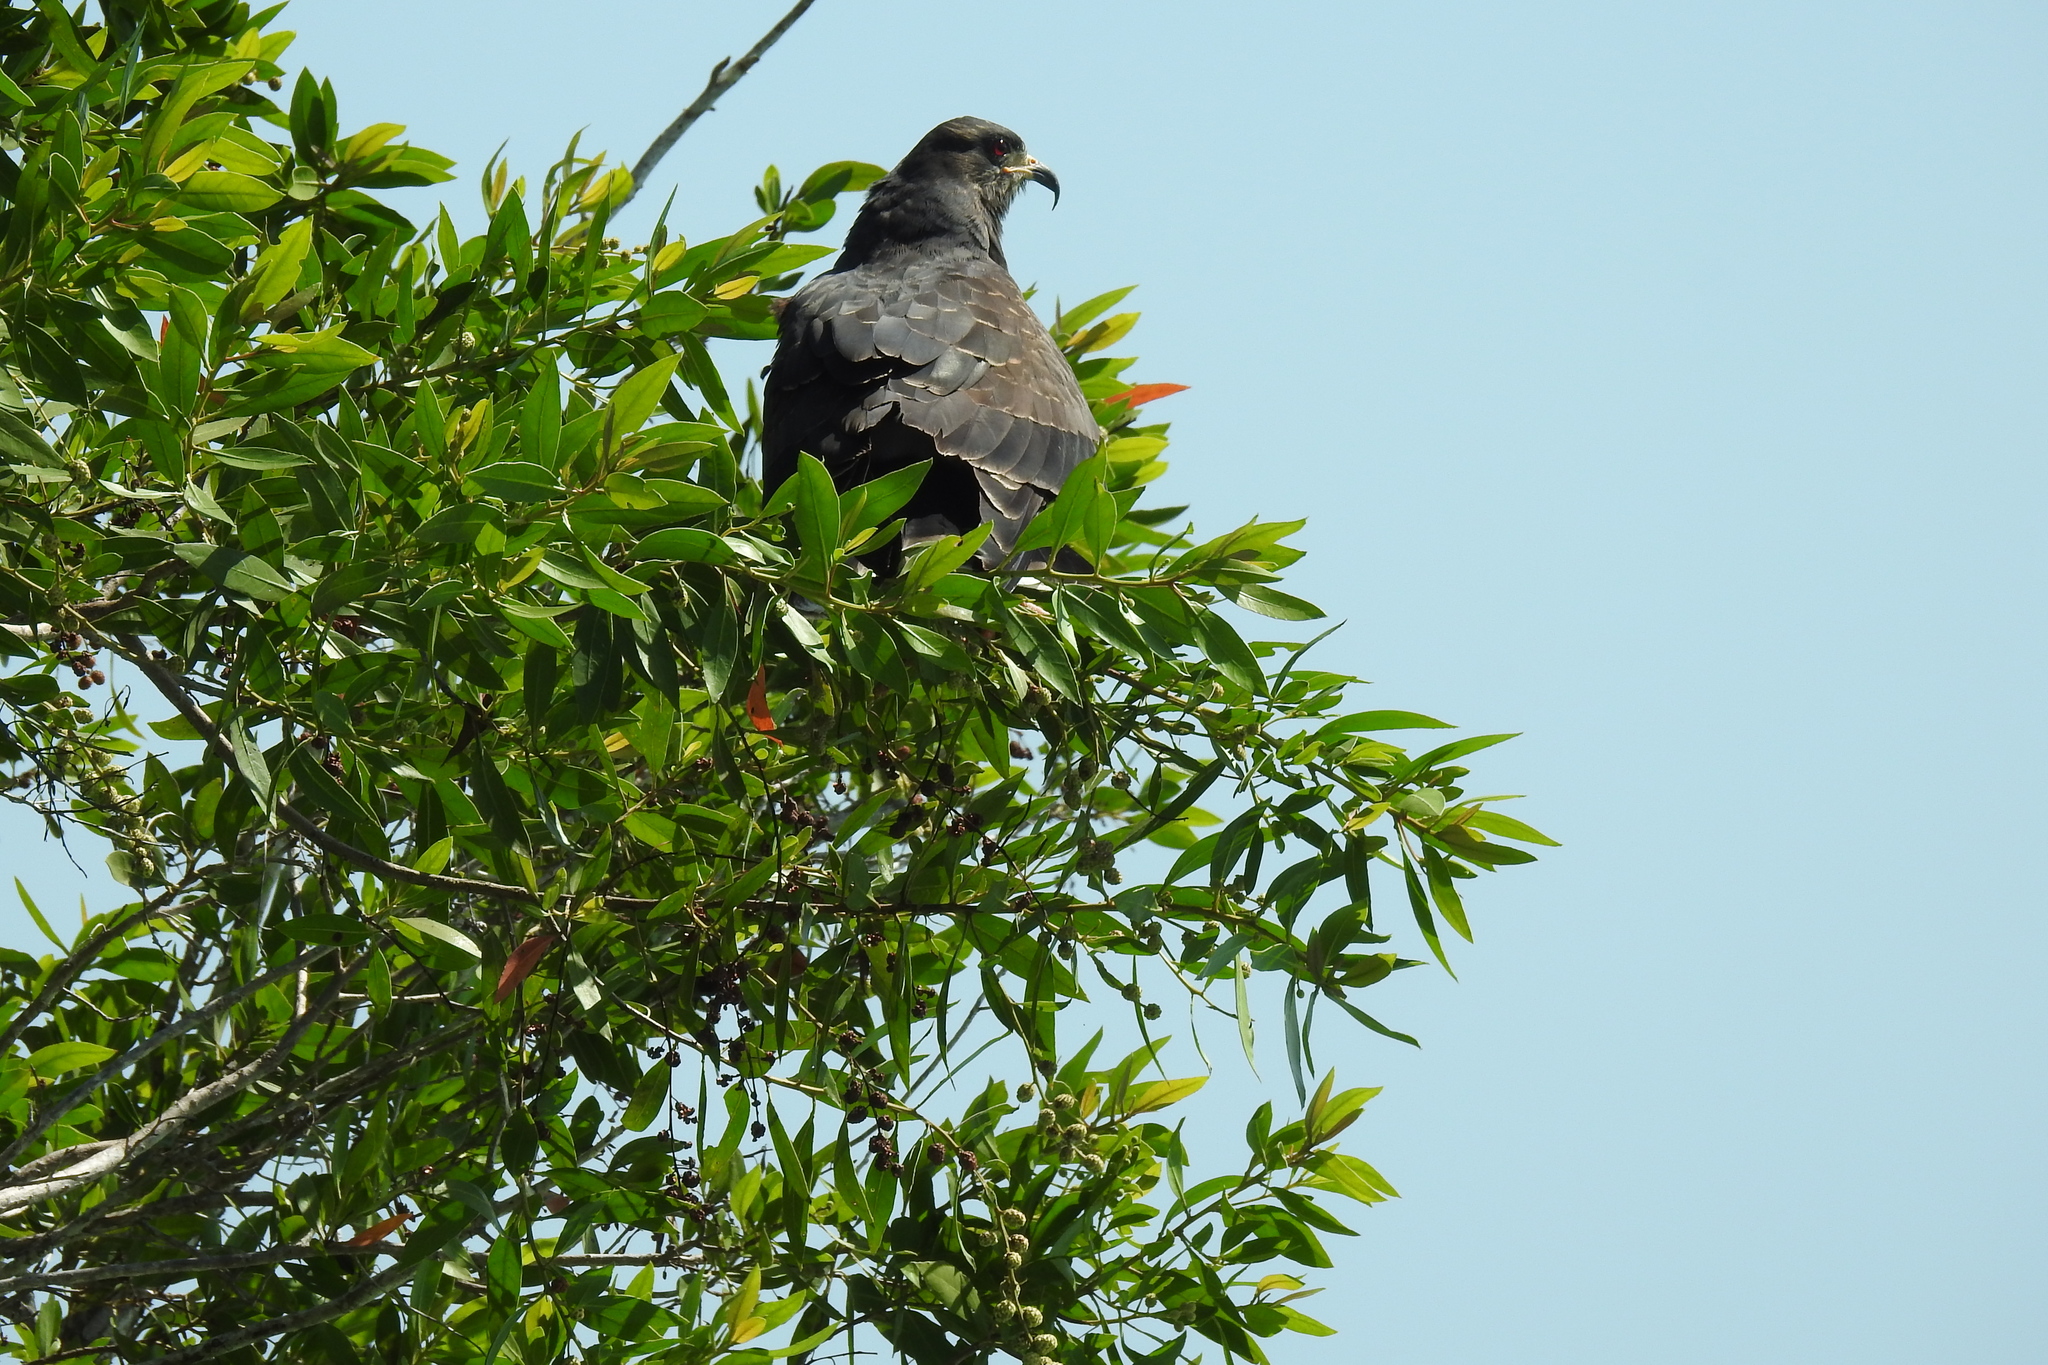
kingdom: Animalia
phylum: Chordata
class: Aves
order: Accipitriformes
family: Accipitridae
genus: Rostrhamus
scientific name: Rostrhamus sociabilis
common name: Snail kite
